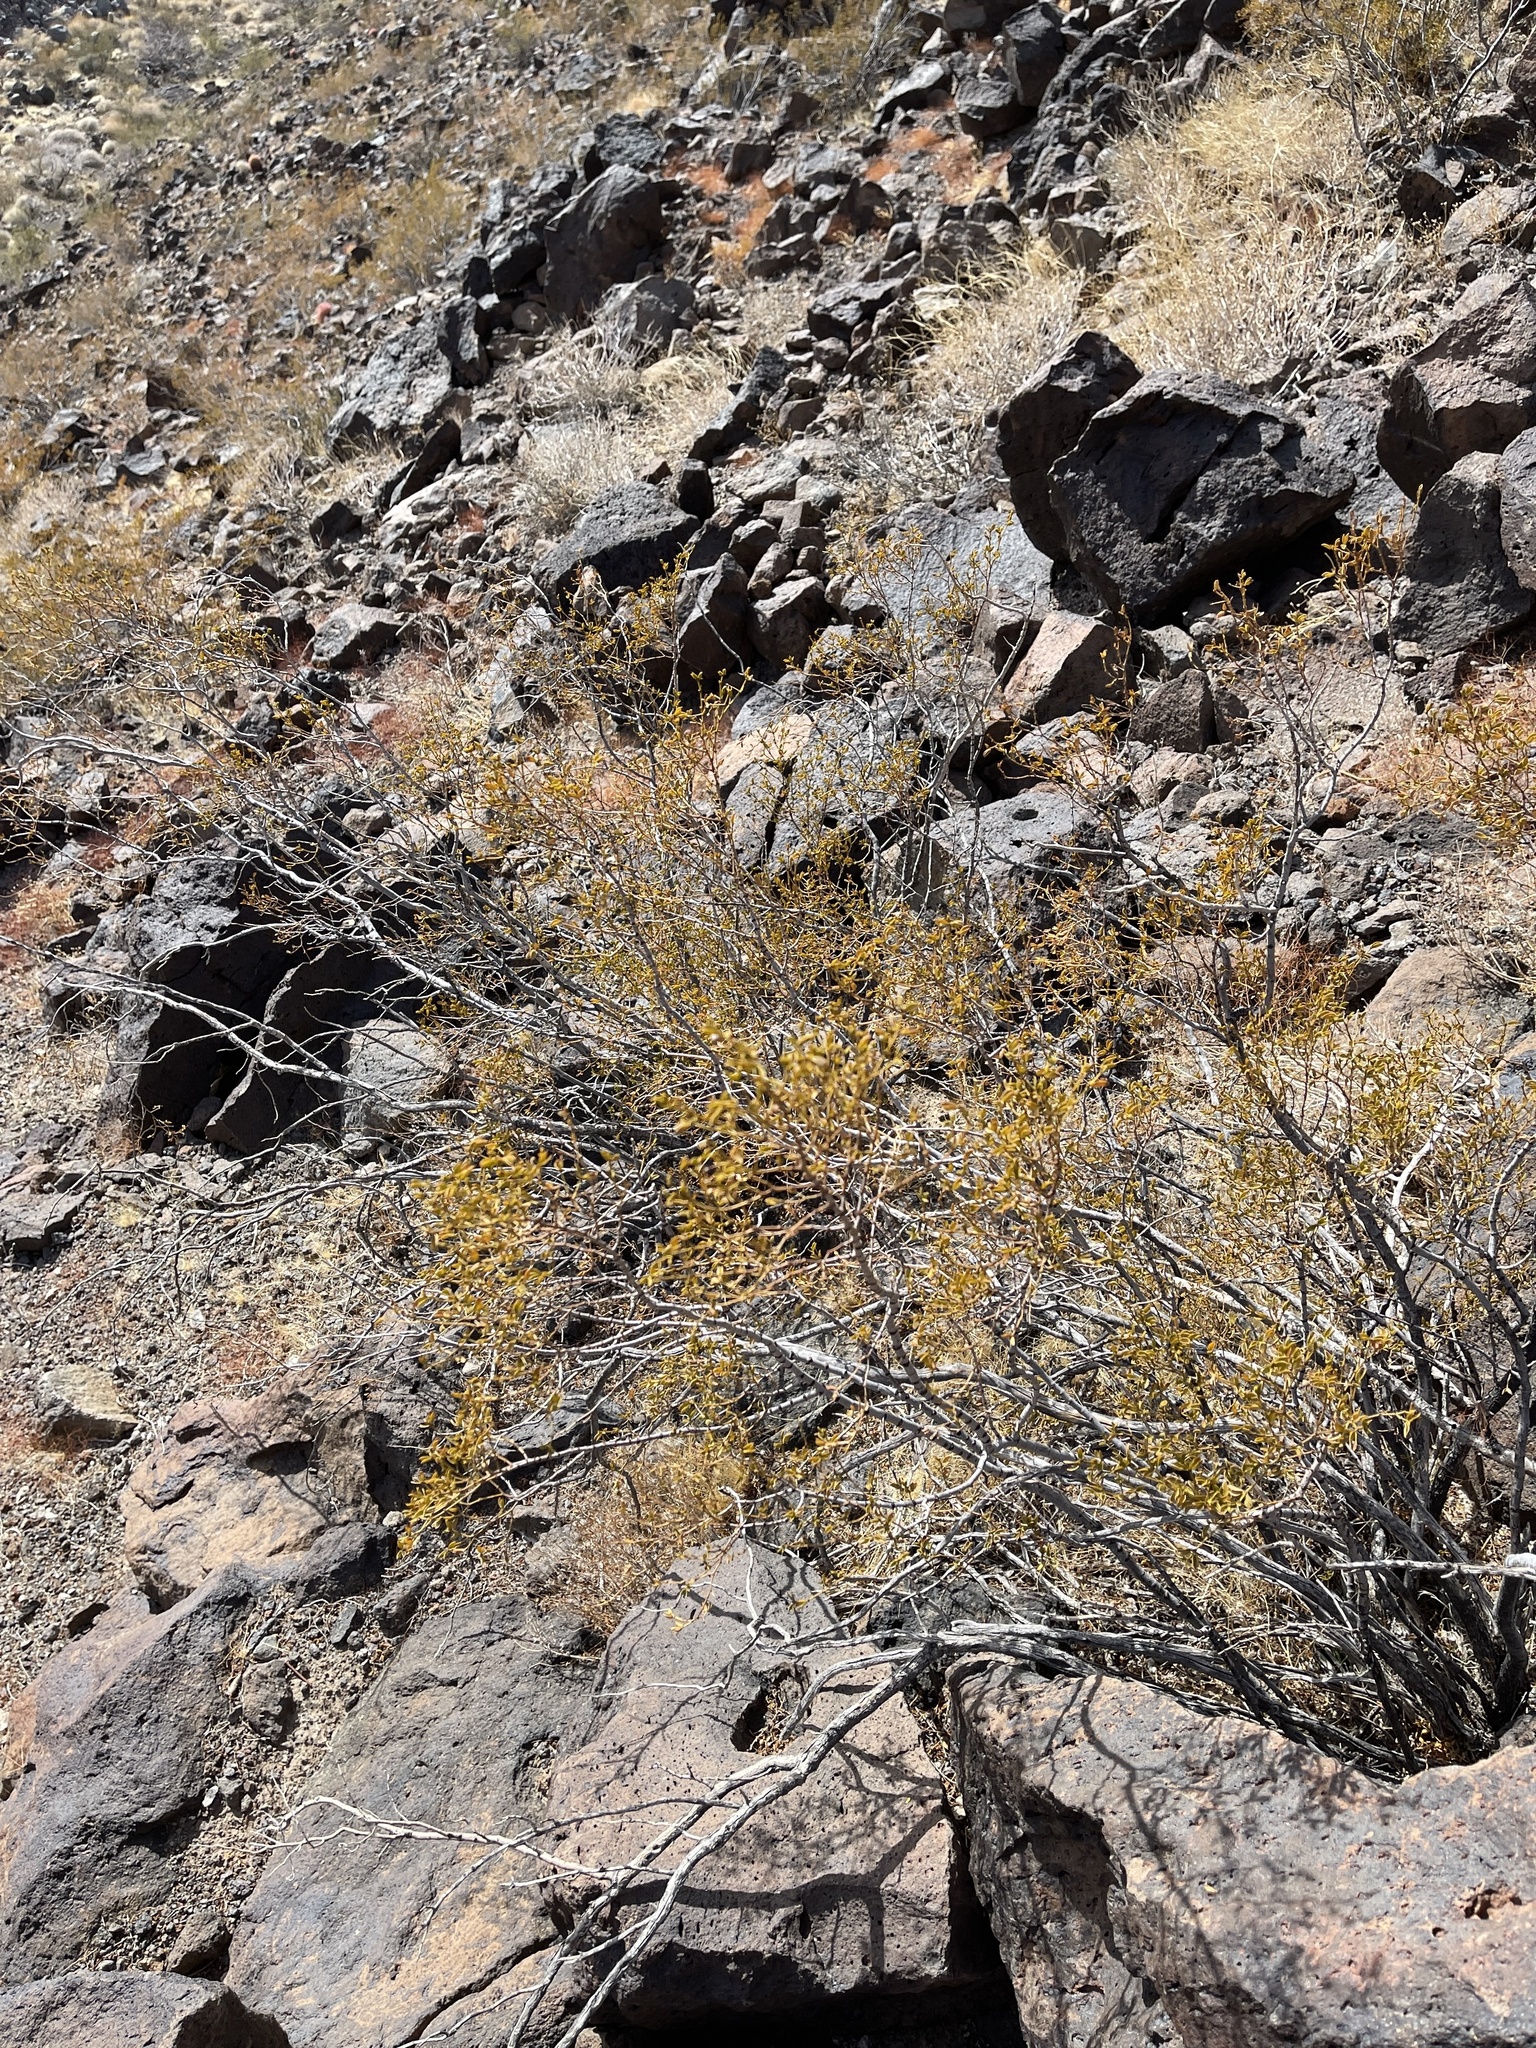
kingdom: Plantae
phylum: Tracheophyta
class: Magnoliopsida
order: Zygophyllales
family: Zygophyllaceae
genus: Larrea
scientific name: Larrea tridentata
